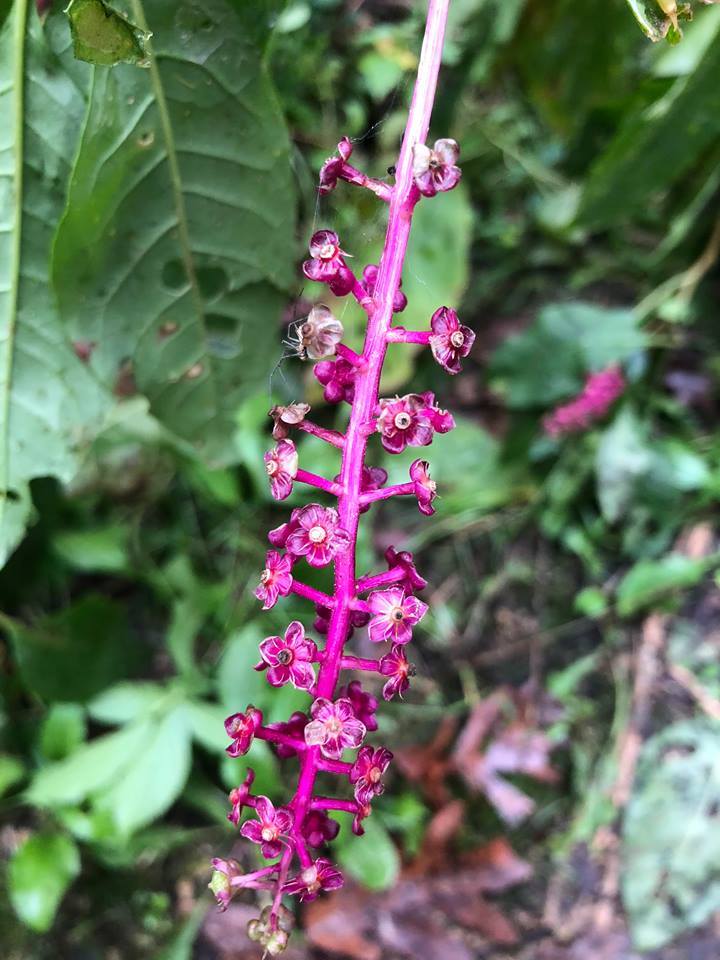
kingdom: Plantae
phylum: Tracheophyta
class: Magnoliopsida
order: Caryophyllales
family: Phytolaccaceae
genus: Phytolacca
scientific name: Phytolacca americana
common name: American pokeweed
